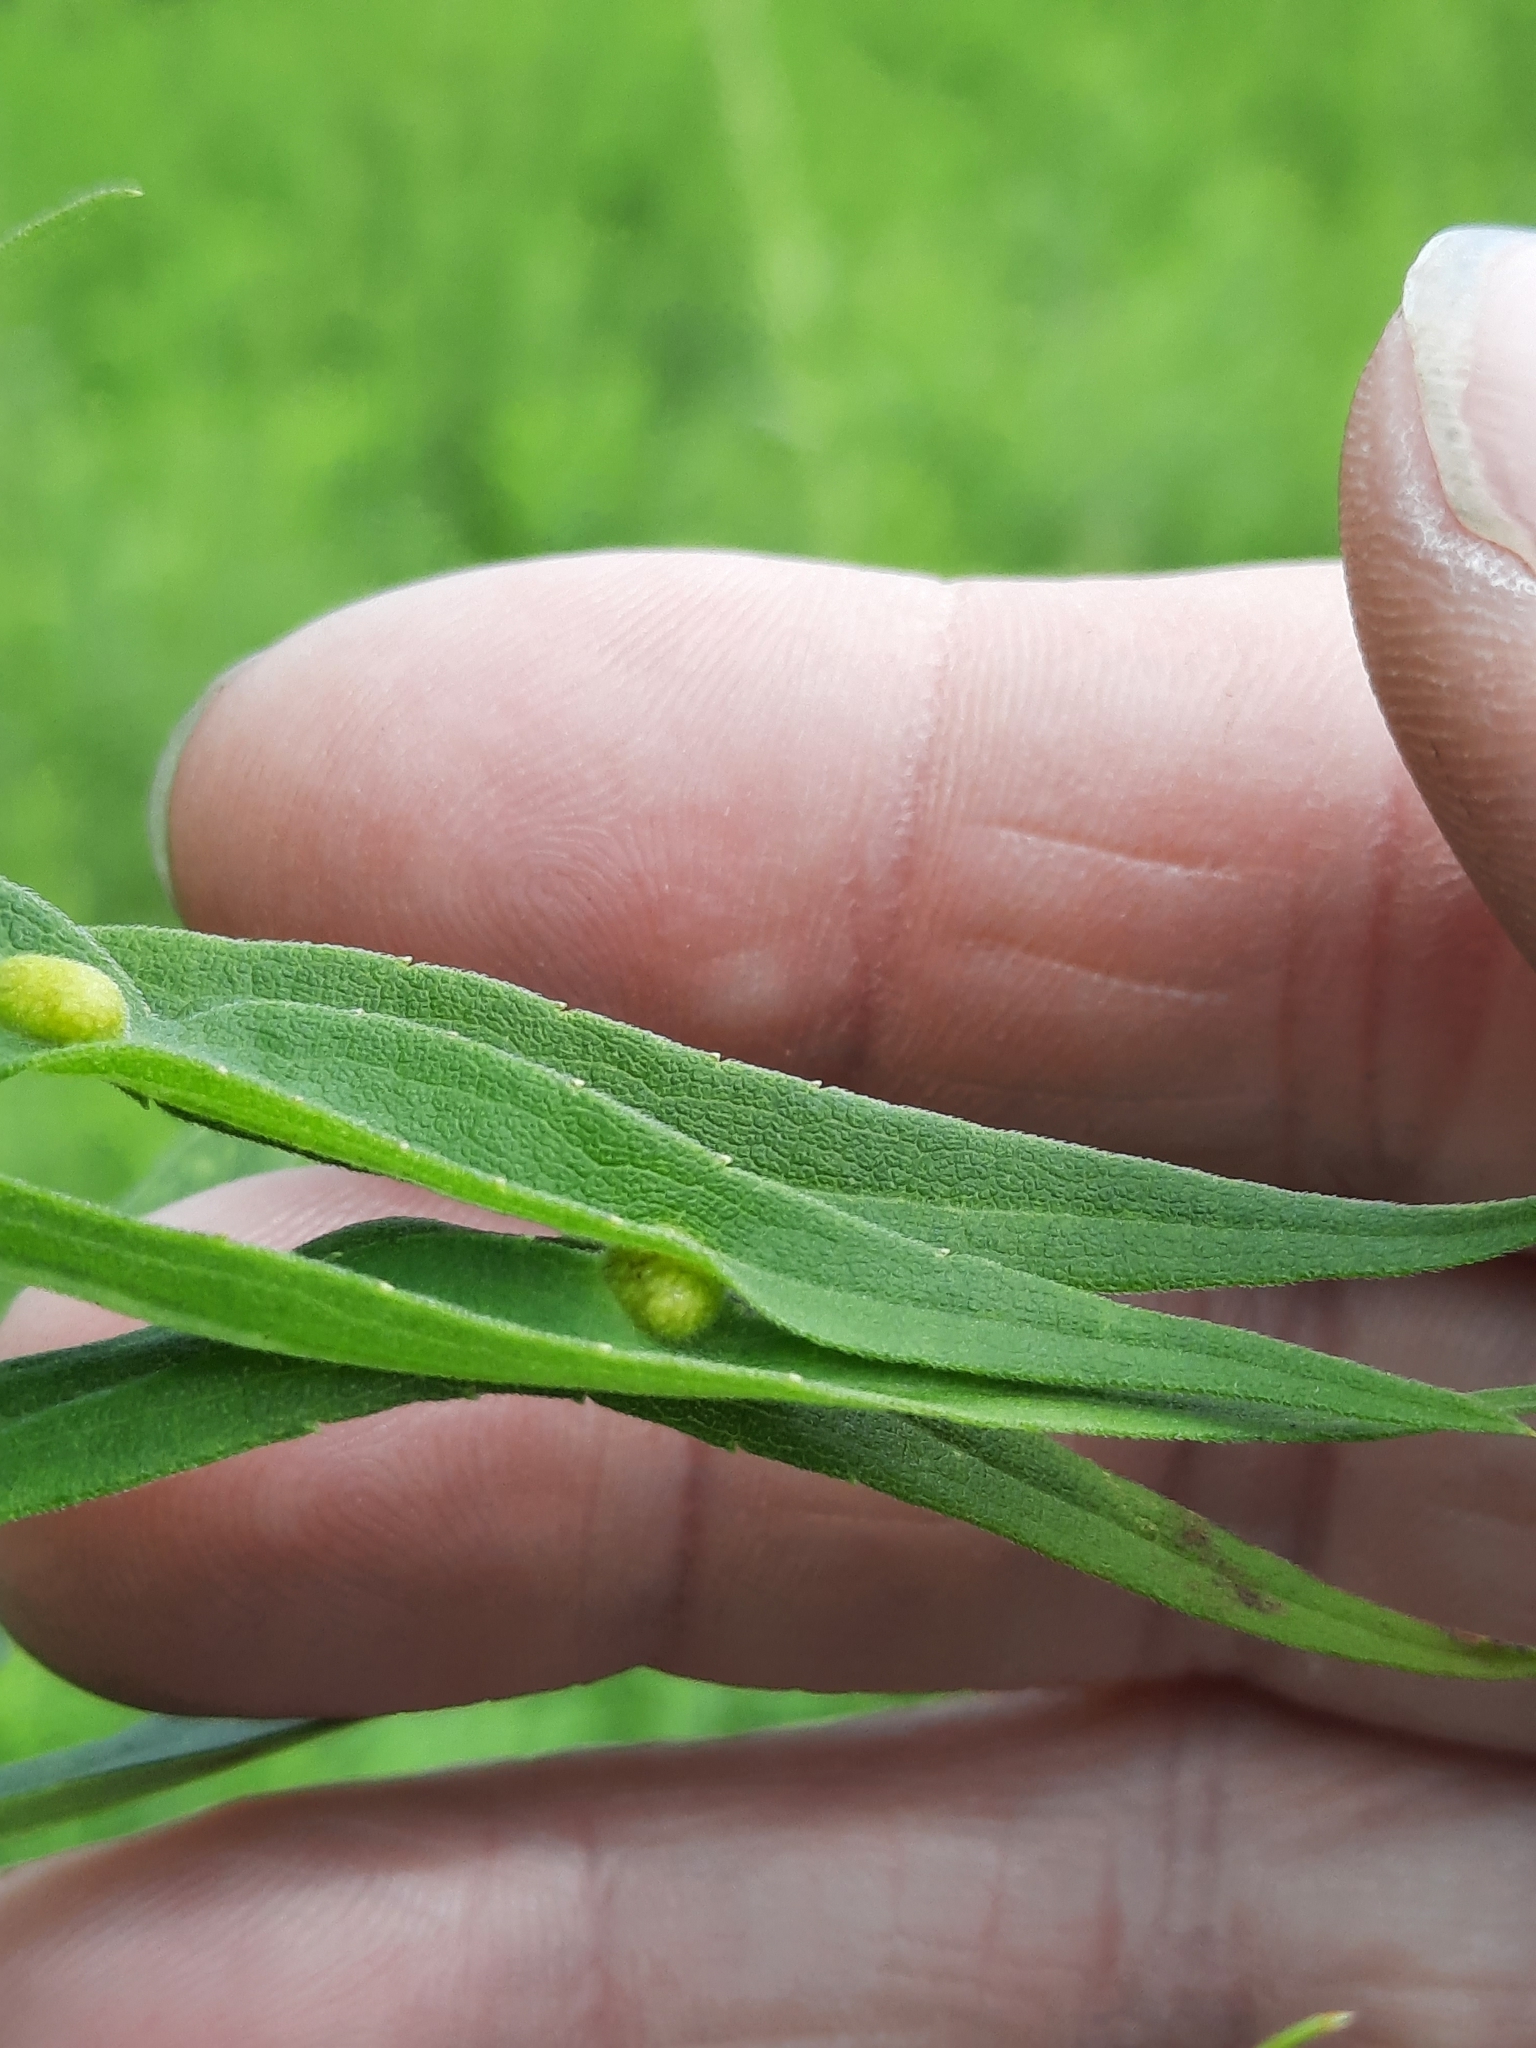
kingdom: Animalia
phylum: Arthropoda
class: Insecta
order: Diptera
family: Cecidomyiidae
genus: Asphondylia
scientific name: Asphondylia solidaginis
